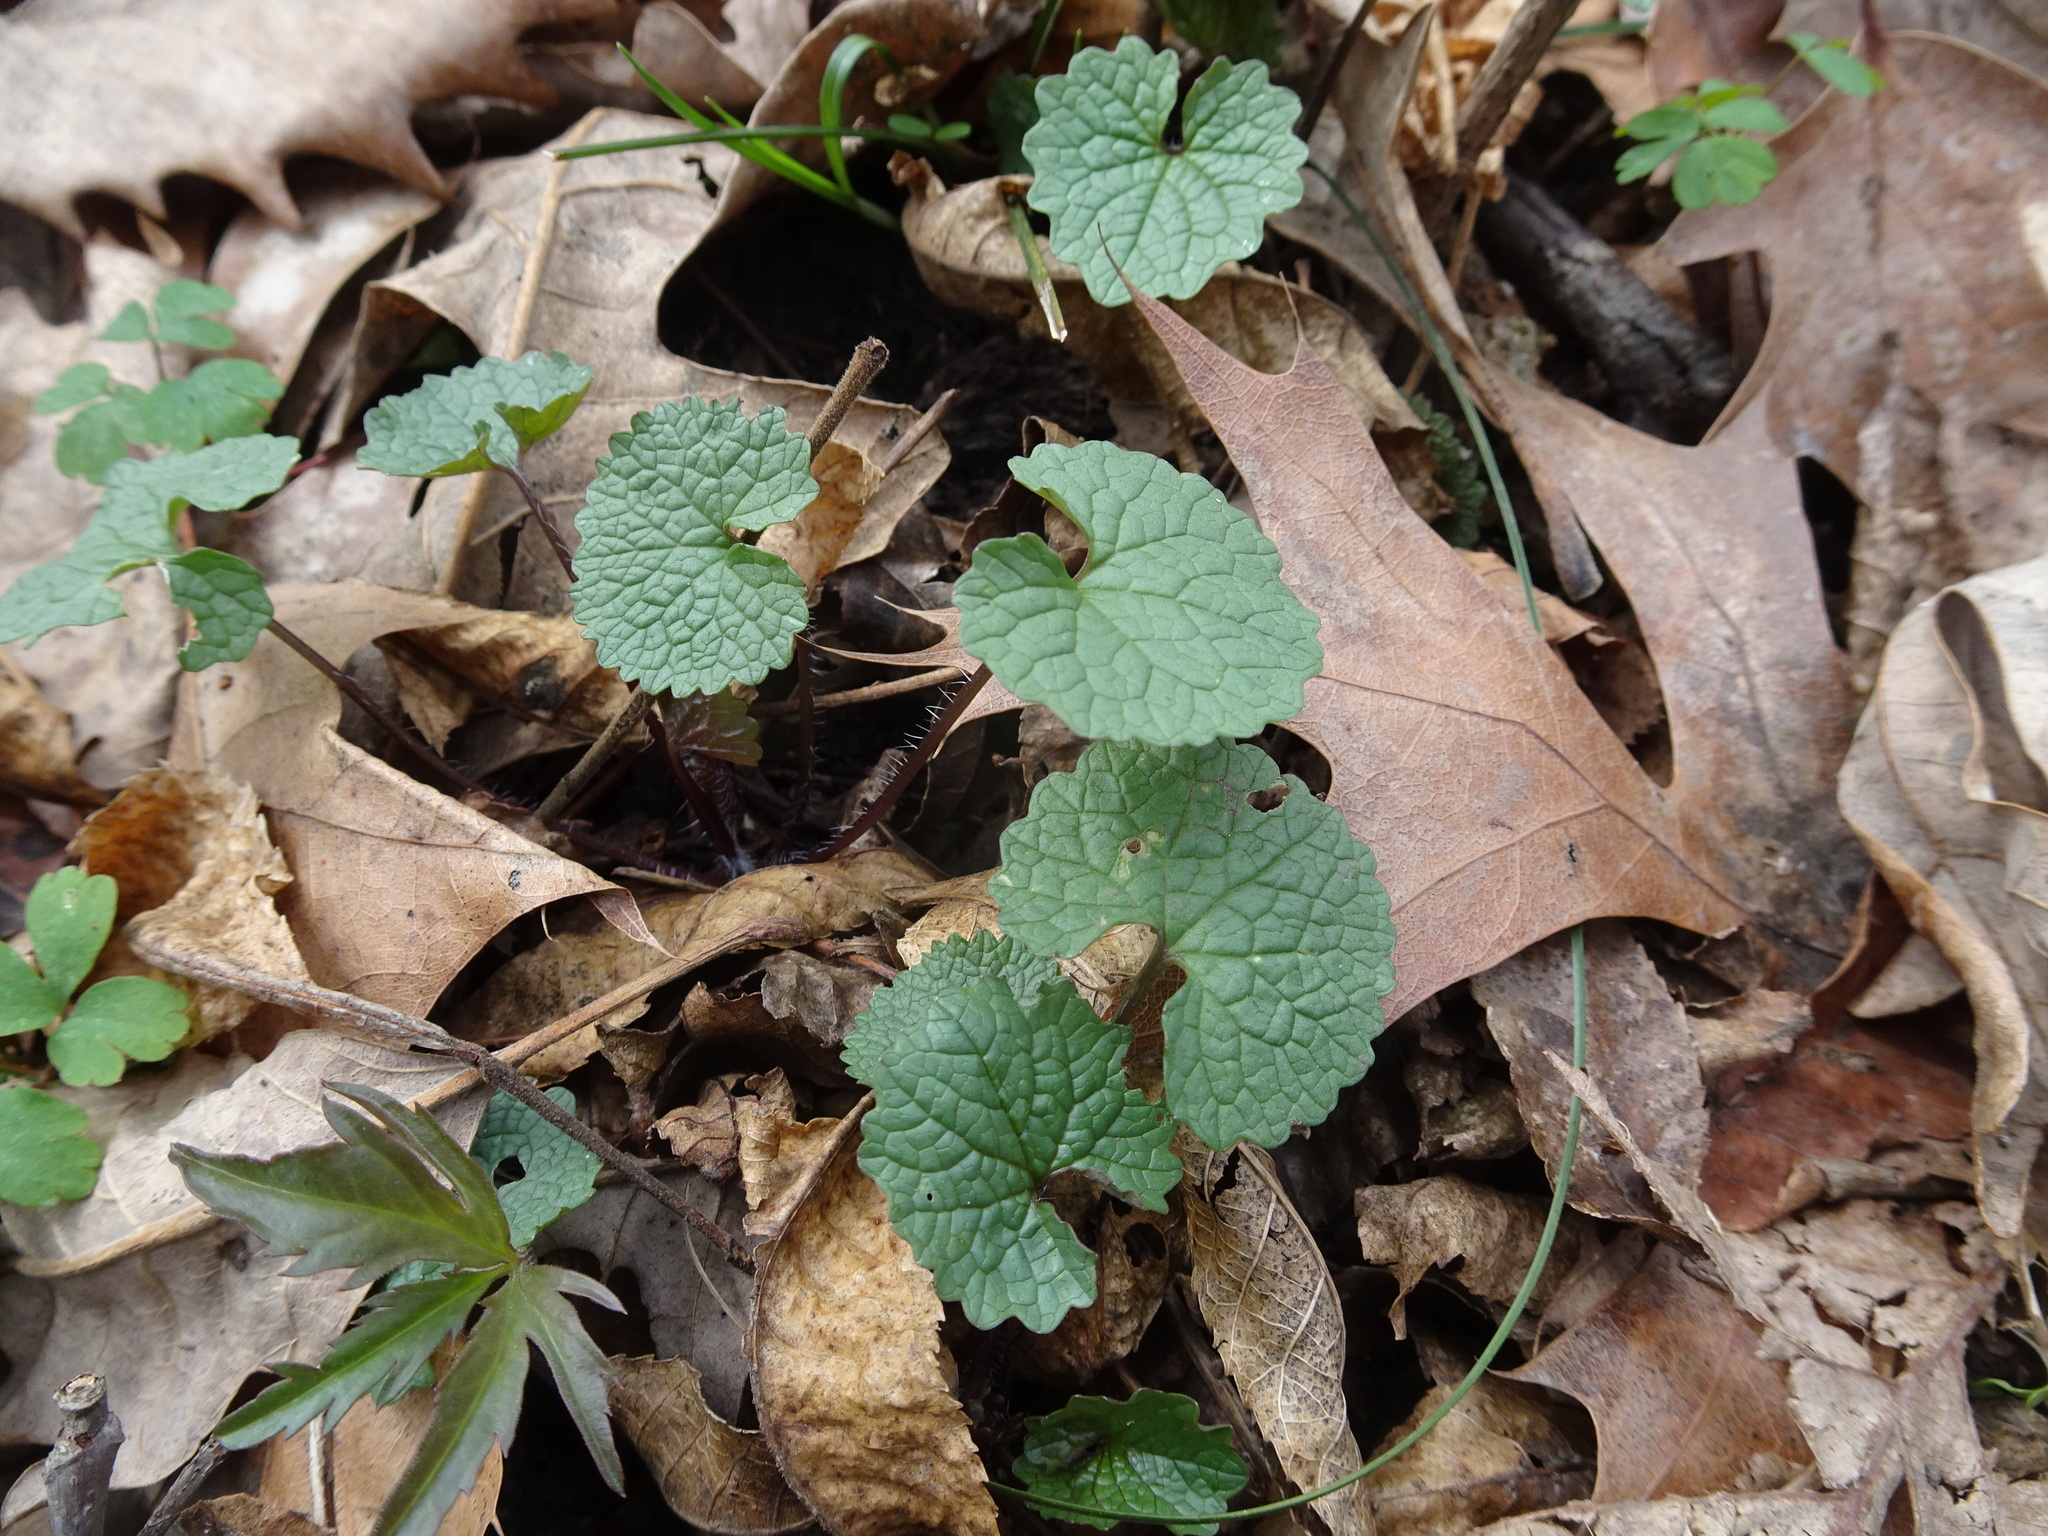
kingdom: Plantae
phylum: Tracheophyta
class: Magnoliopsida
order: Brassicales
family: Brassicaceae
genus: Alliaria
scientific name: Alliaria petiolata
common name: Garlic mustard
